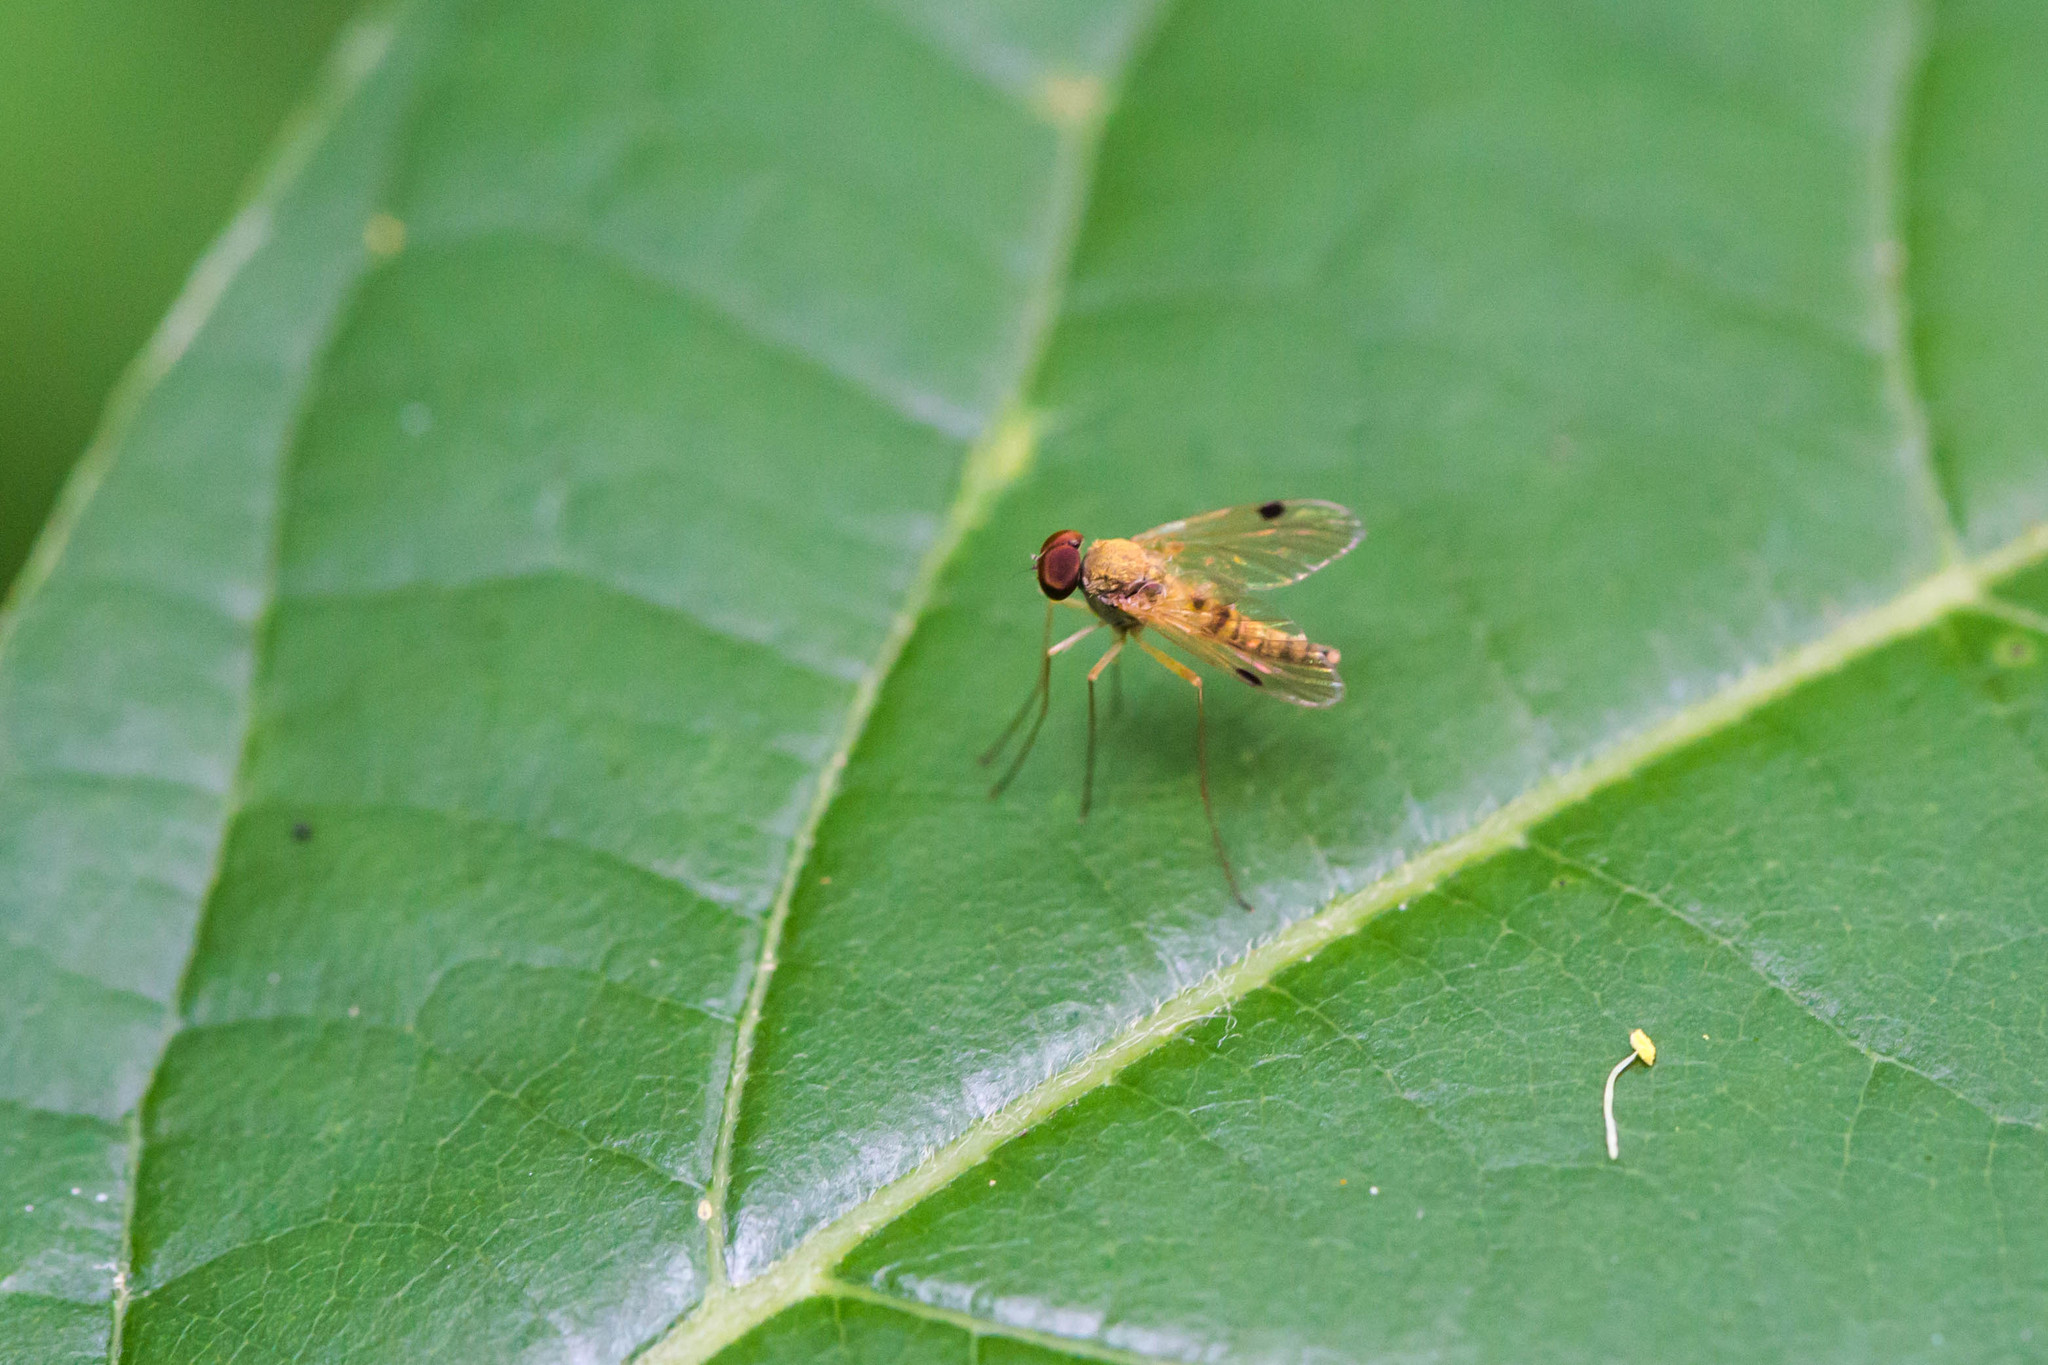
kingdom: Animalia
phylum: Arthropoda
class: Insecta
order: Diptera
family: Rhagionidae
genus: Chrysopilus
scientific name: Chrysopilus modestus
